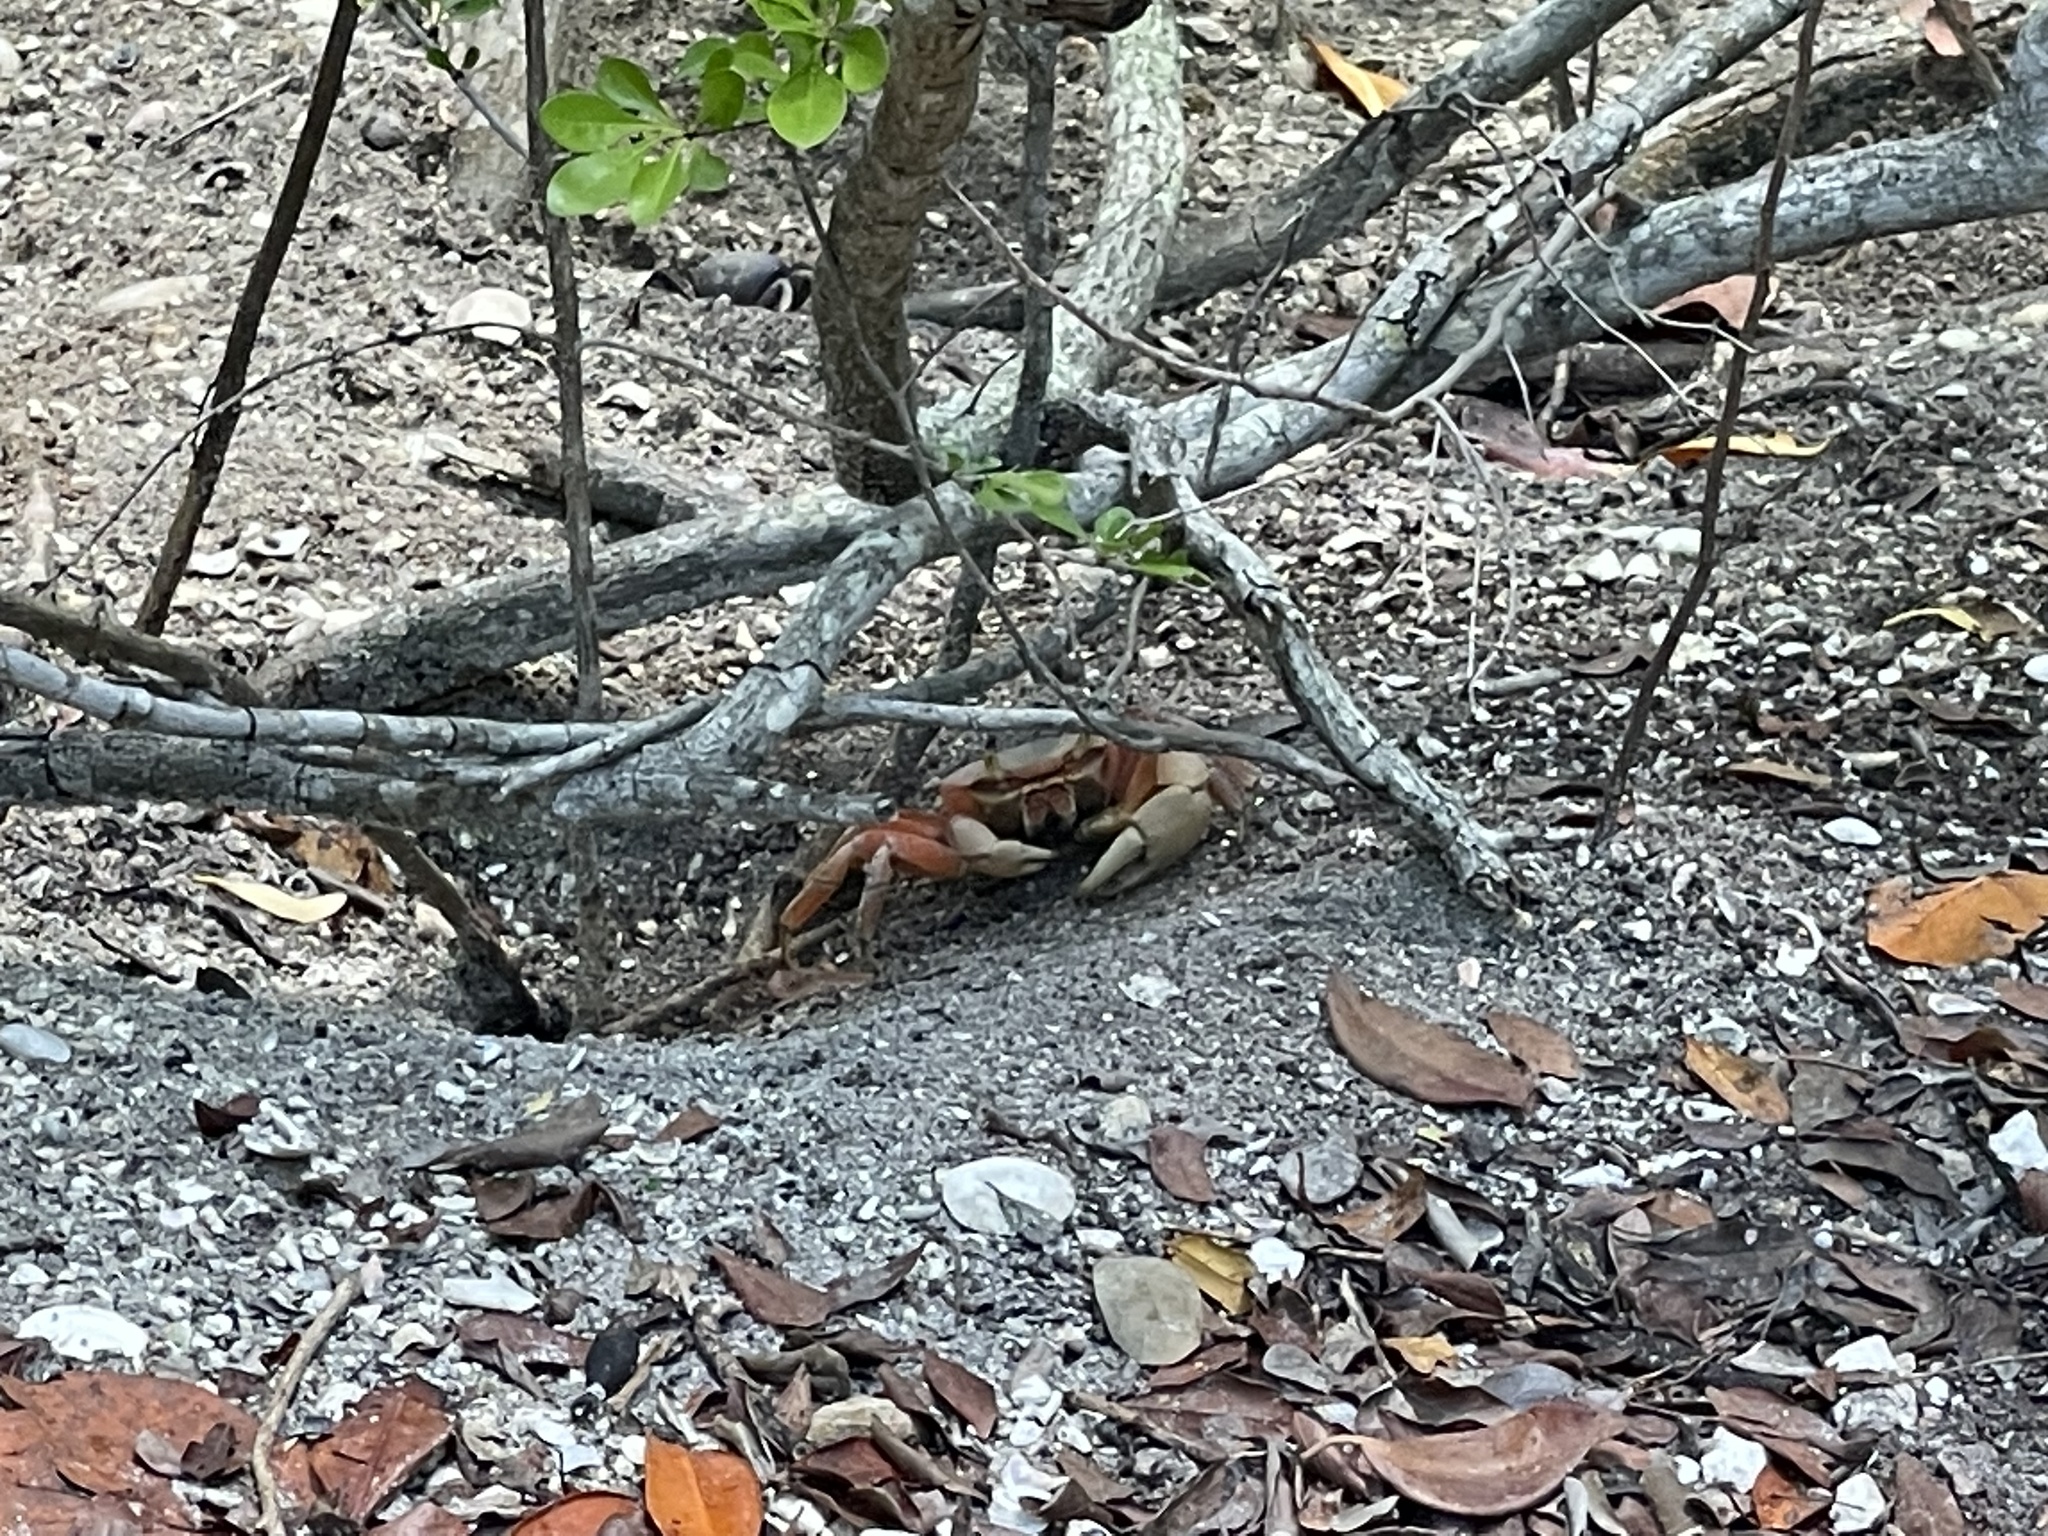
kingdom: Animalia
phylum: Arthropoda
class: Malacostraca
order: Decapoda
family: Gecarcinidae
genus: Cardisoma
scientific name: Cardisoma guanhumi
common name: Great land crab
